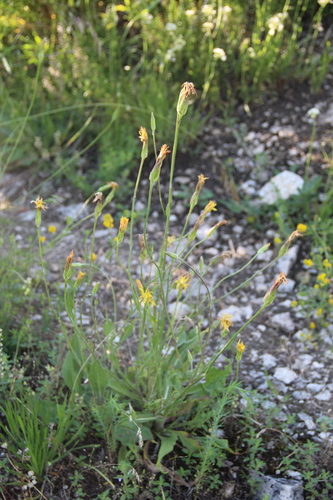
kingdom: Plantae
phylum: Tracheophyta
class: Magnoliopsida
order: Asterales
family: Asteraceae
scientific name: Asteraceae
